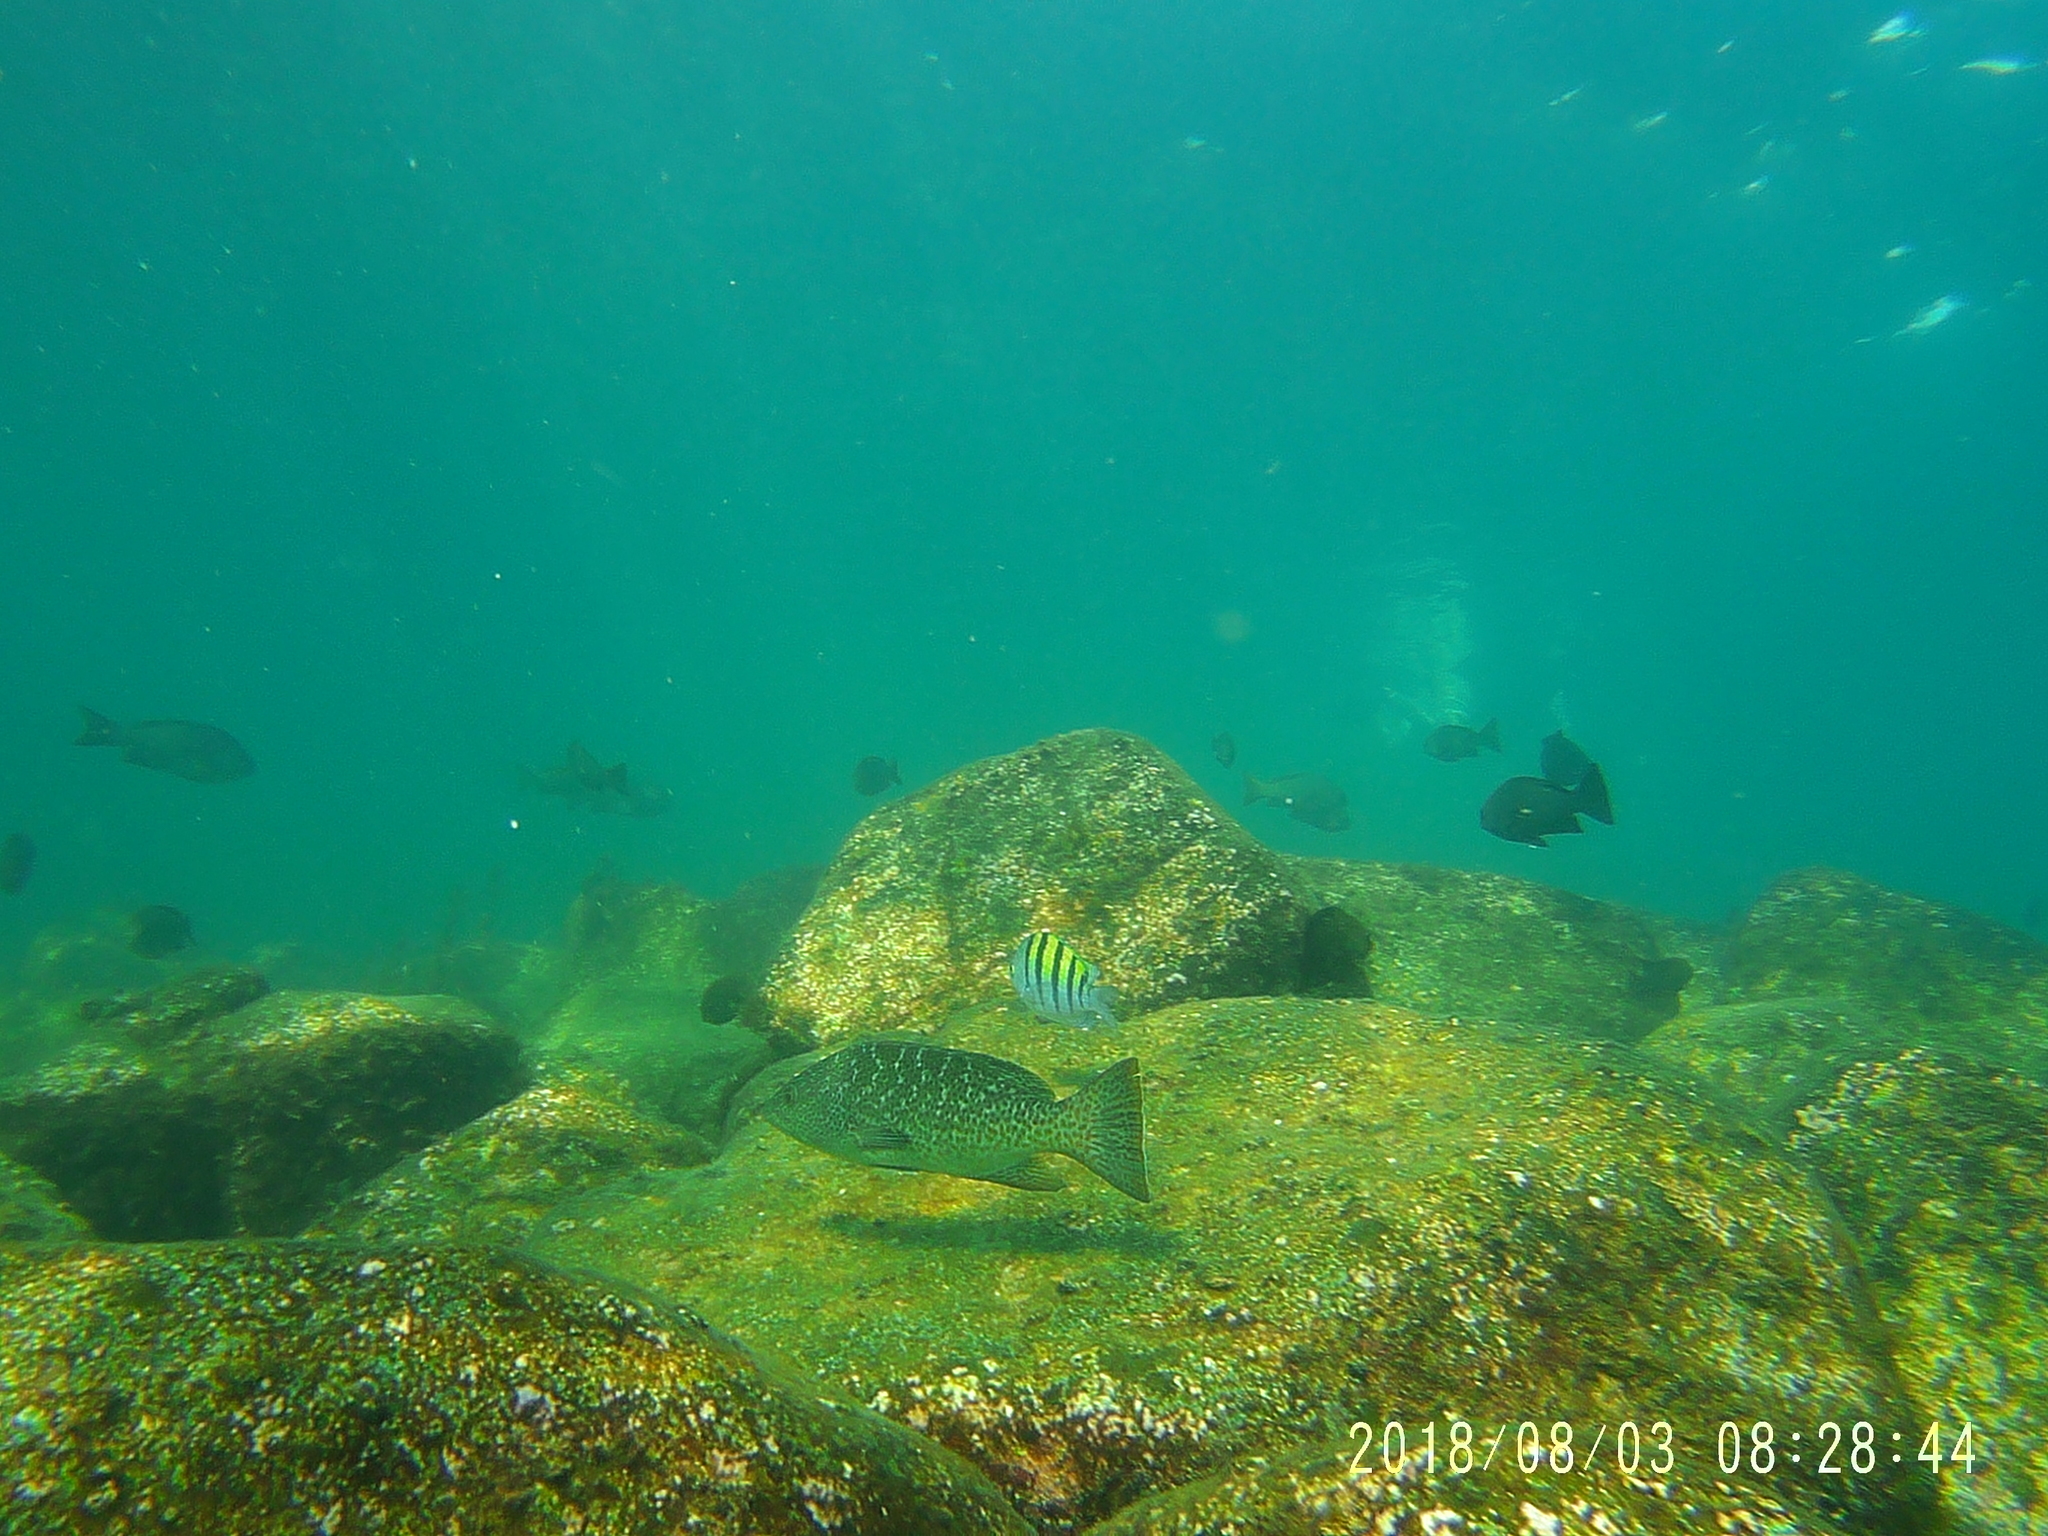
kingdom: Animalia
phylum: Chordata
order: Perciformes
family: Serranidae
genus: Mycteroperca
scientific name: Mycteroperca rosacea
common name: Leopard grouper
